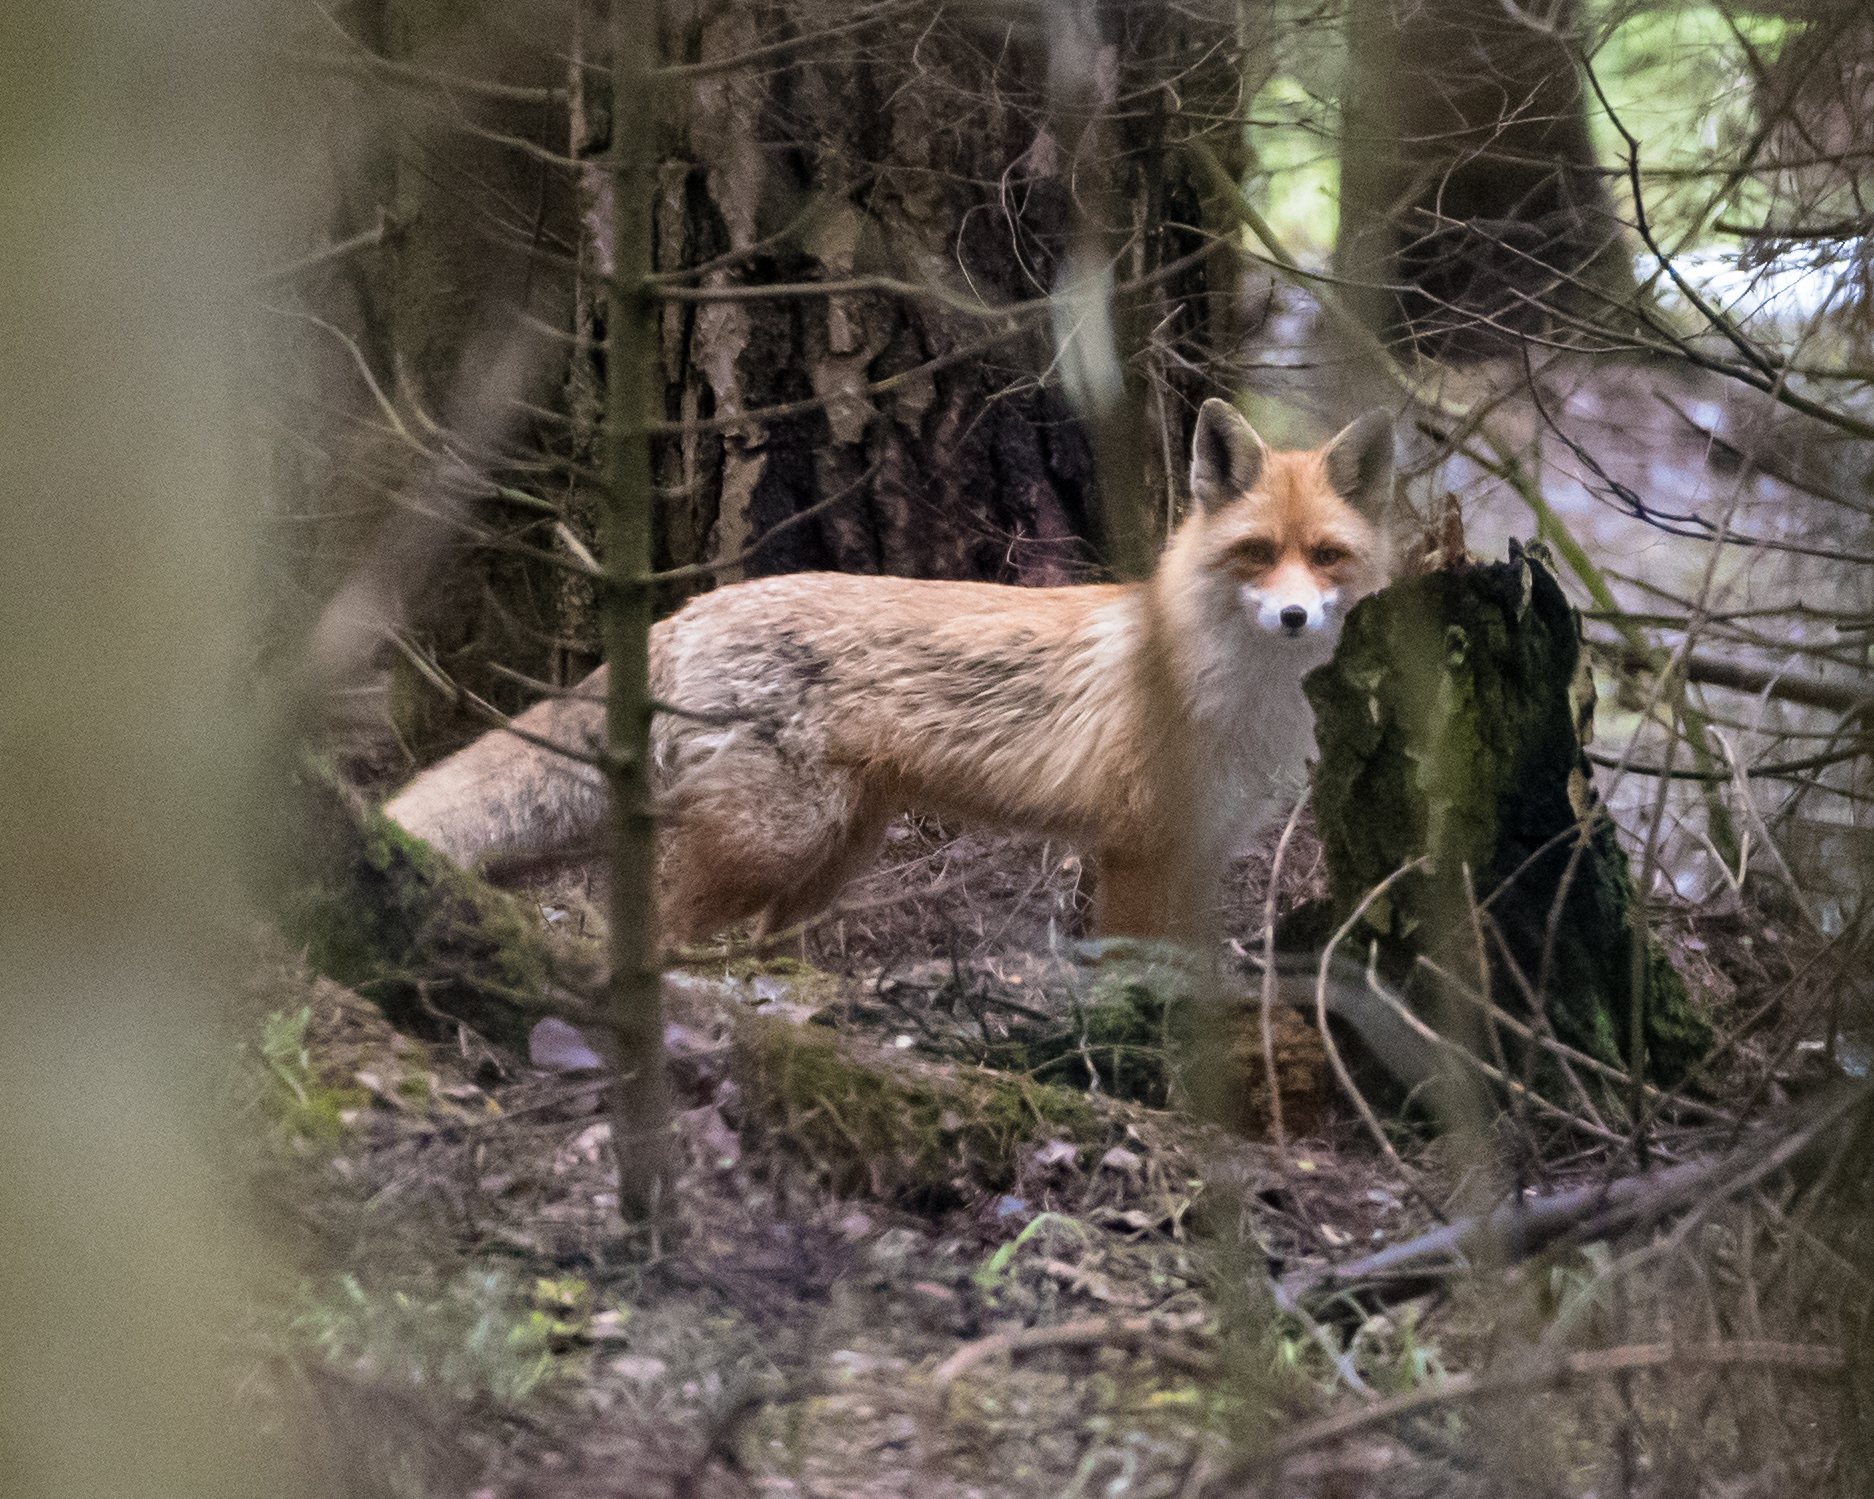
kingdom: Animalia
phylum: Chordata
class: Mammalia
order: Carnivora
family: Canidae
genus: Vulpes
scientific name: Vulpes vulpes
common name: Red fox
